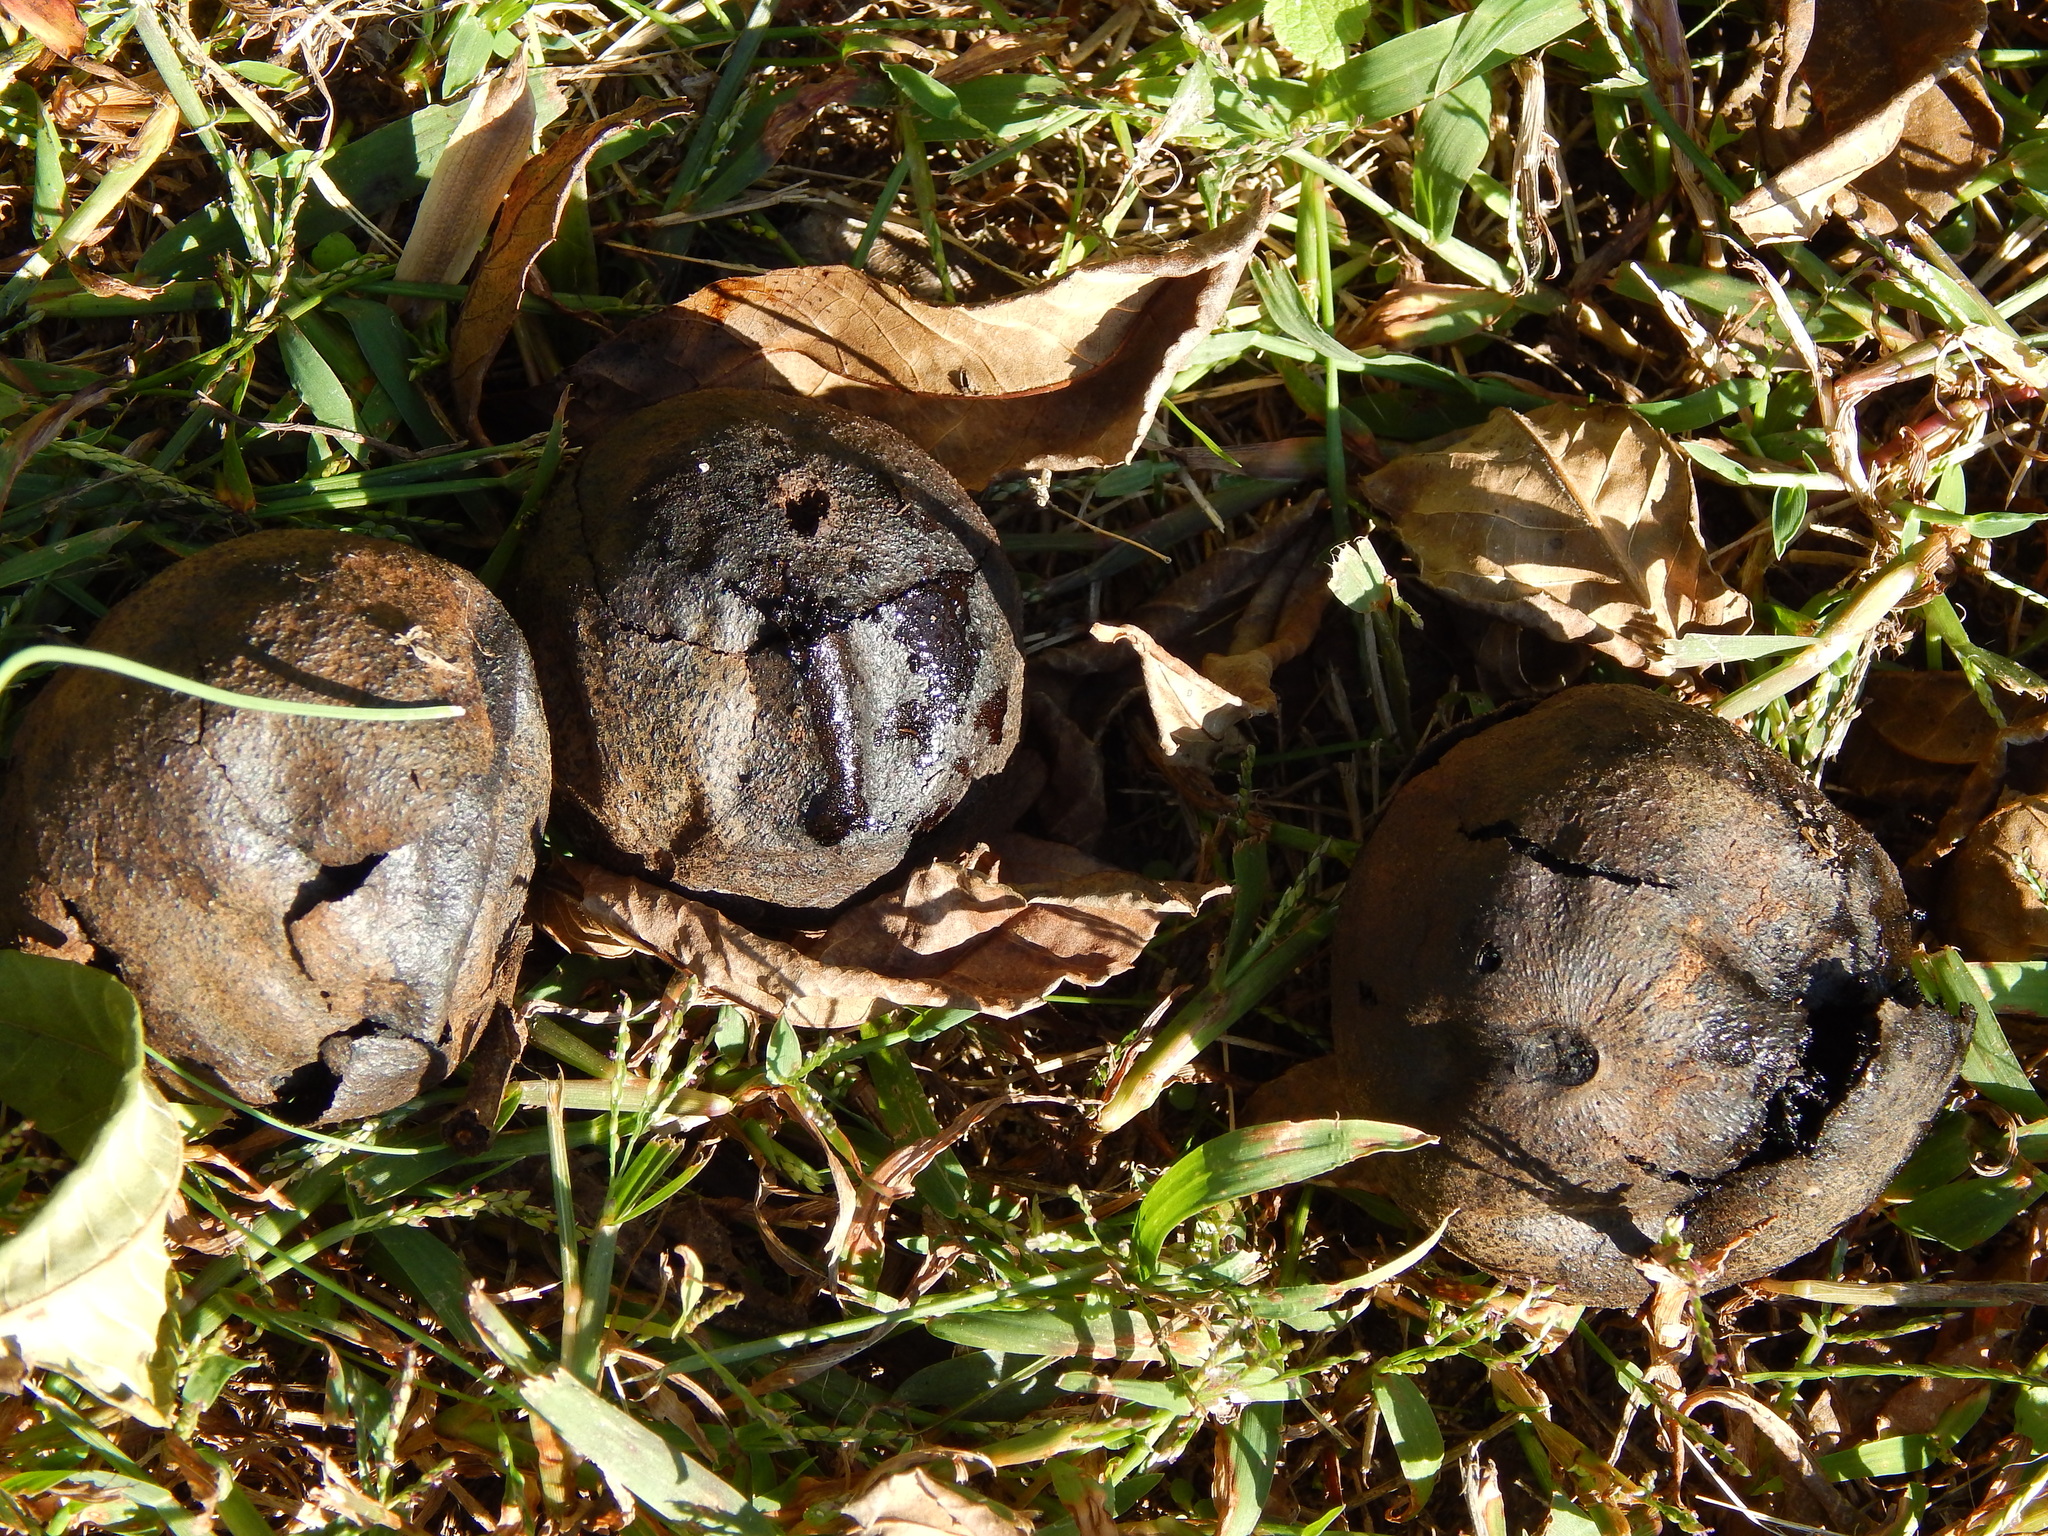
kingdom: Plantae
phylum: Tracheophyta
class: Magnoliopsida
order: Fagales
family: Juglandaceae
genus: Juglans
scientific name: Juglans nigra
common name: Black walnut
